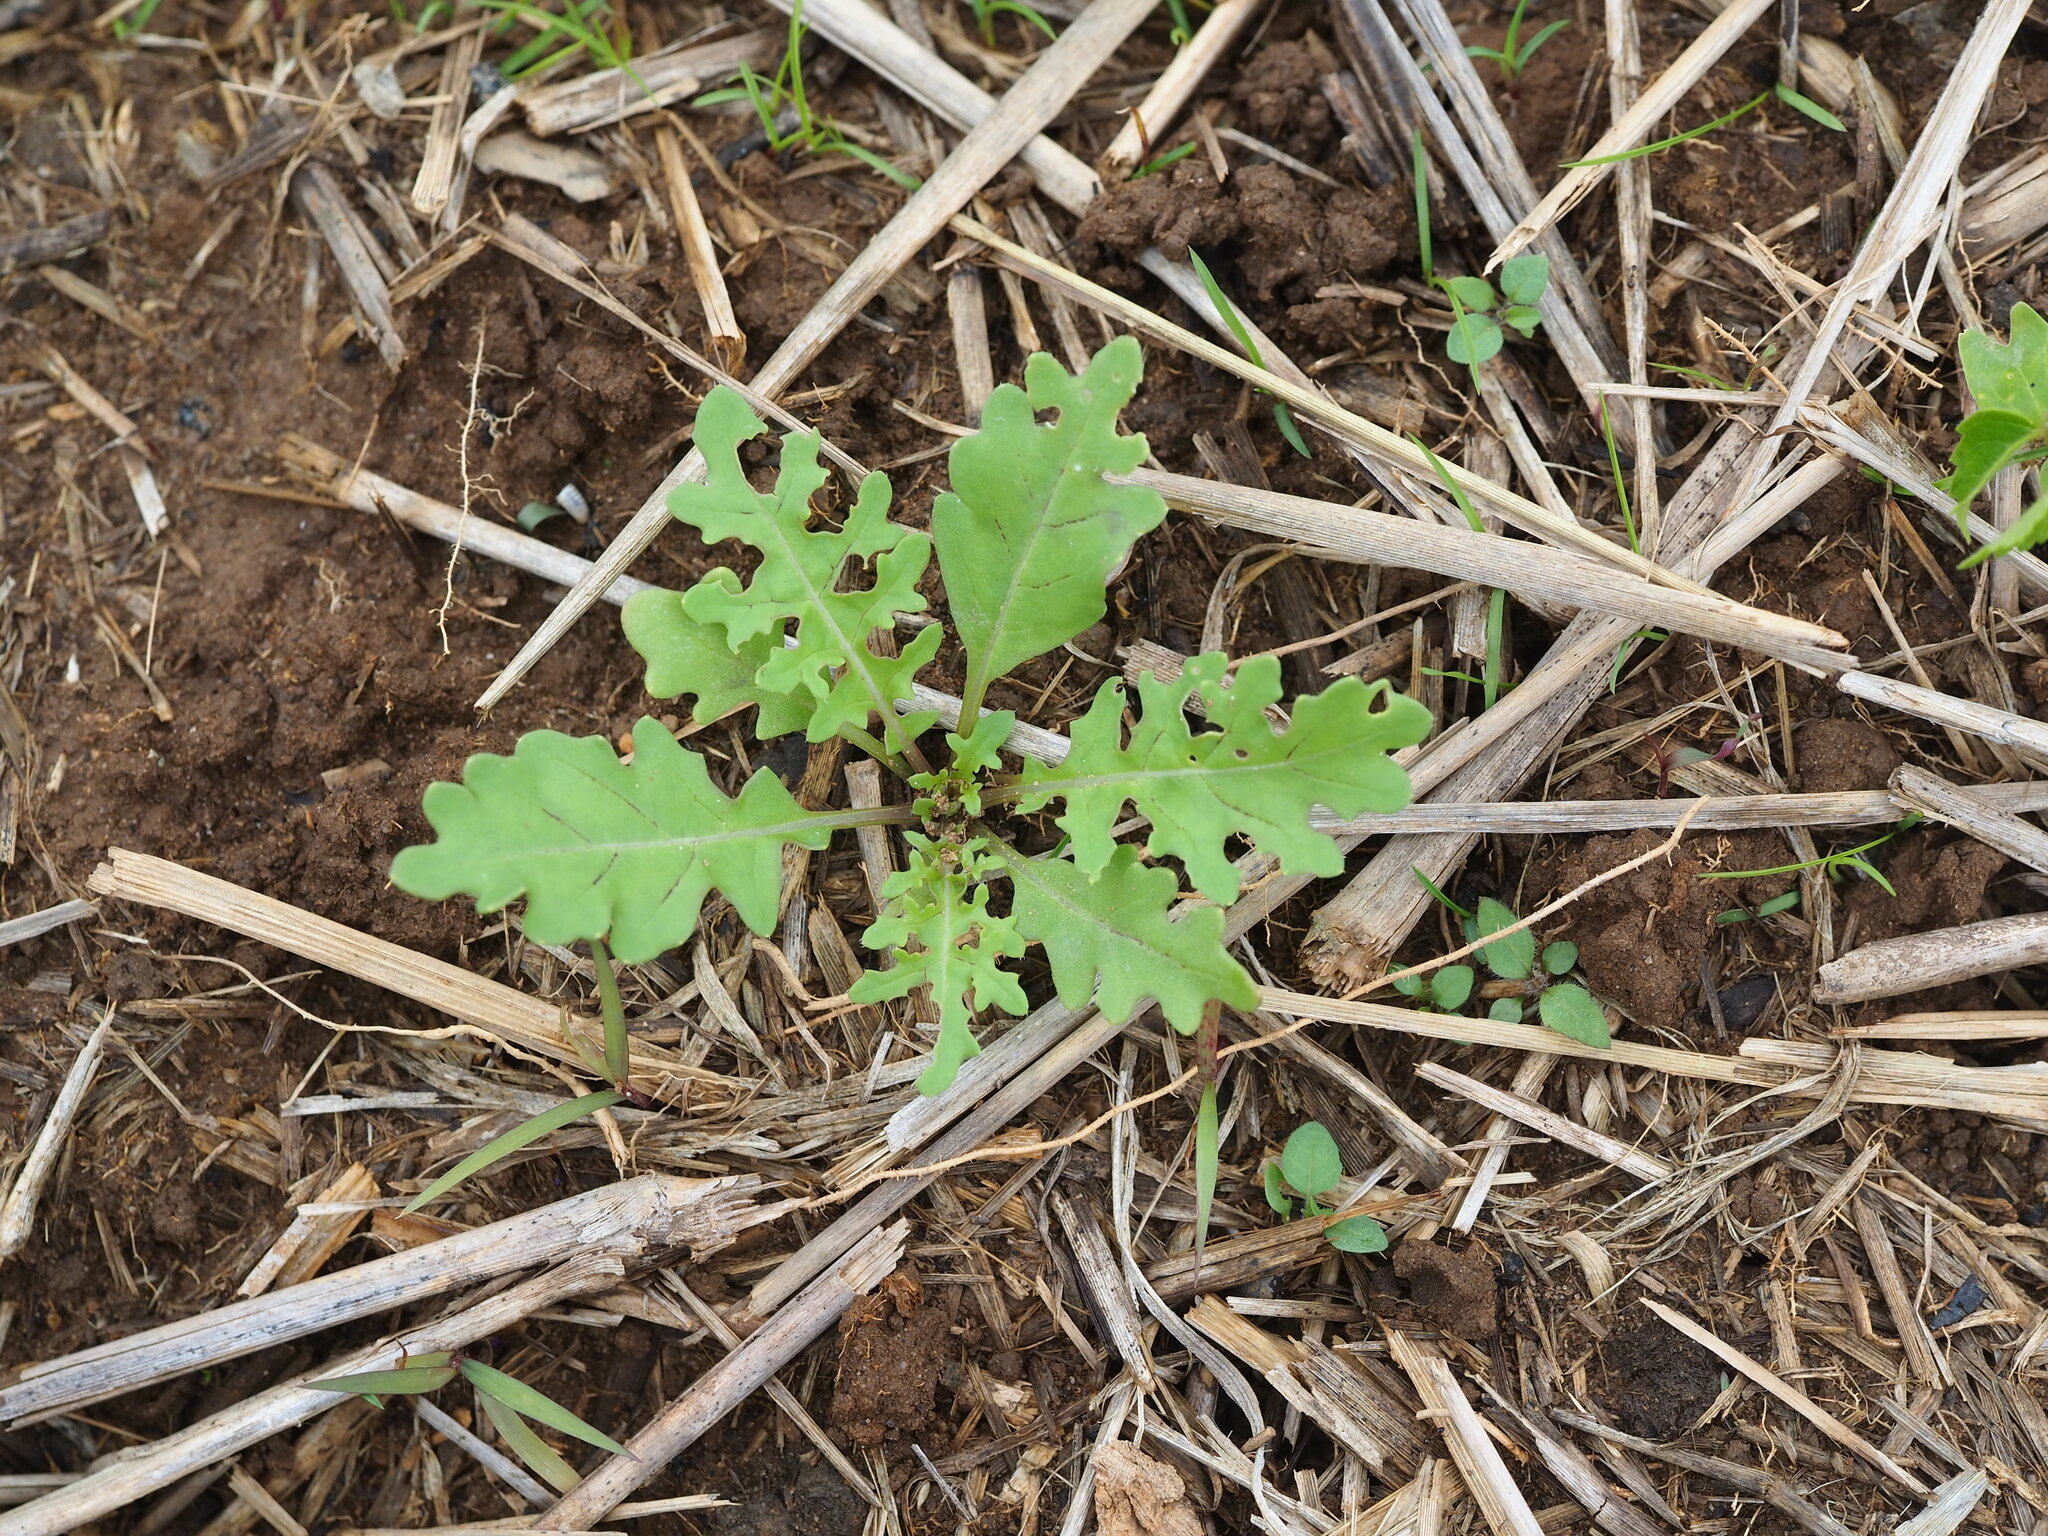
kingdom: Plantae
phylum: Tracheophyta
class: Magnoliopsida
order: Brassicales
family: Brassicaceae
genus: Rorippa
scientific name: Rorippa palustris
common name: Marsh yellow-cress
